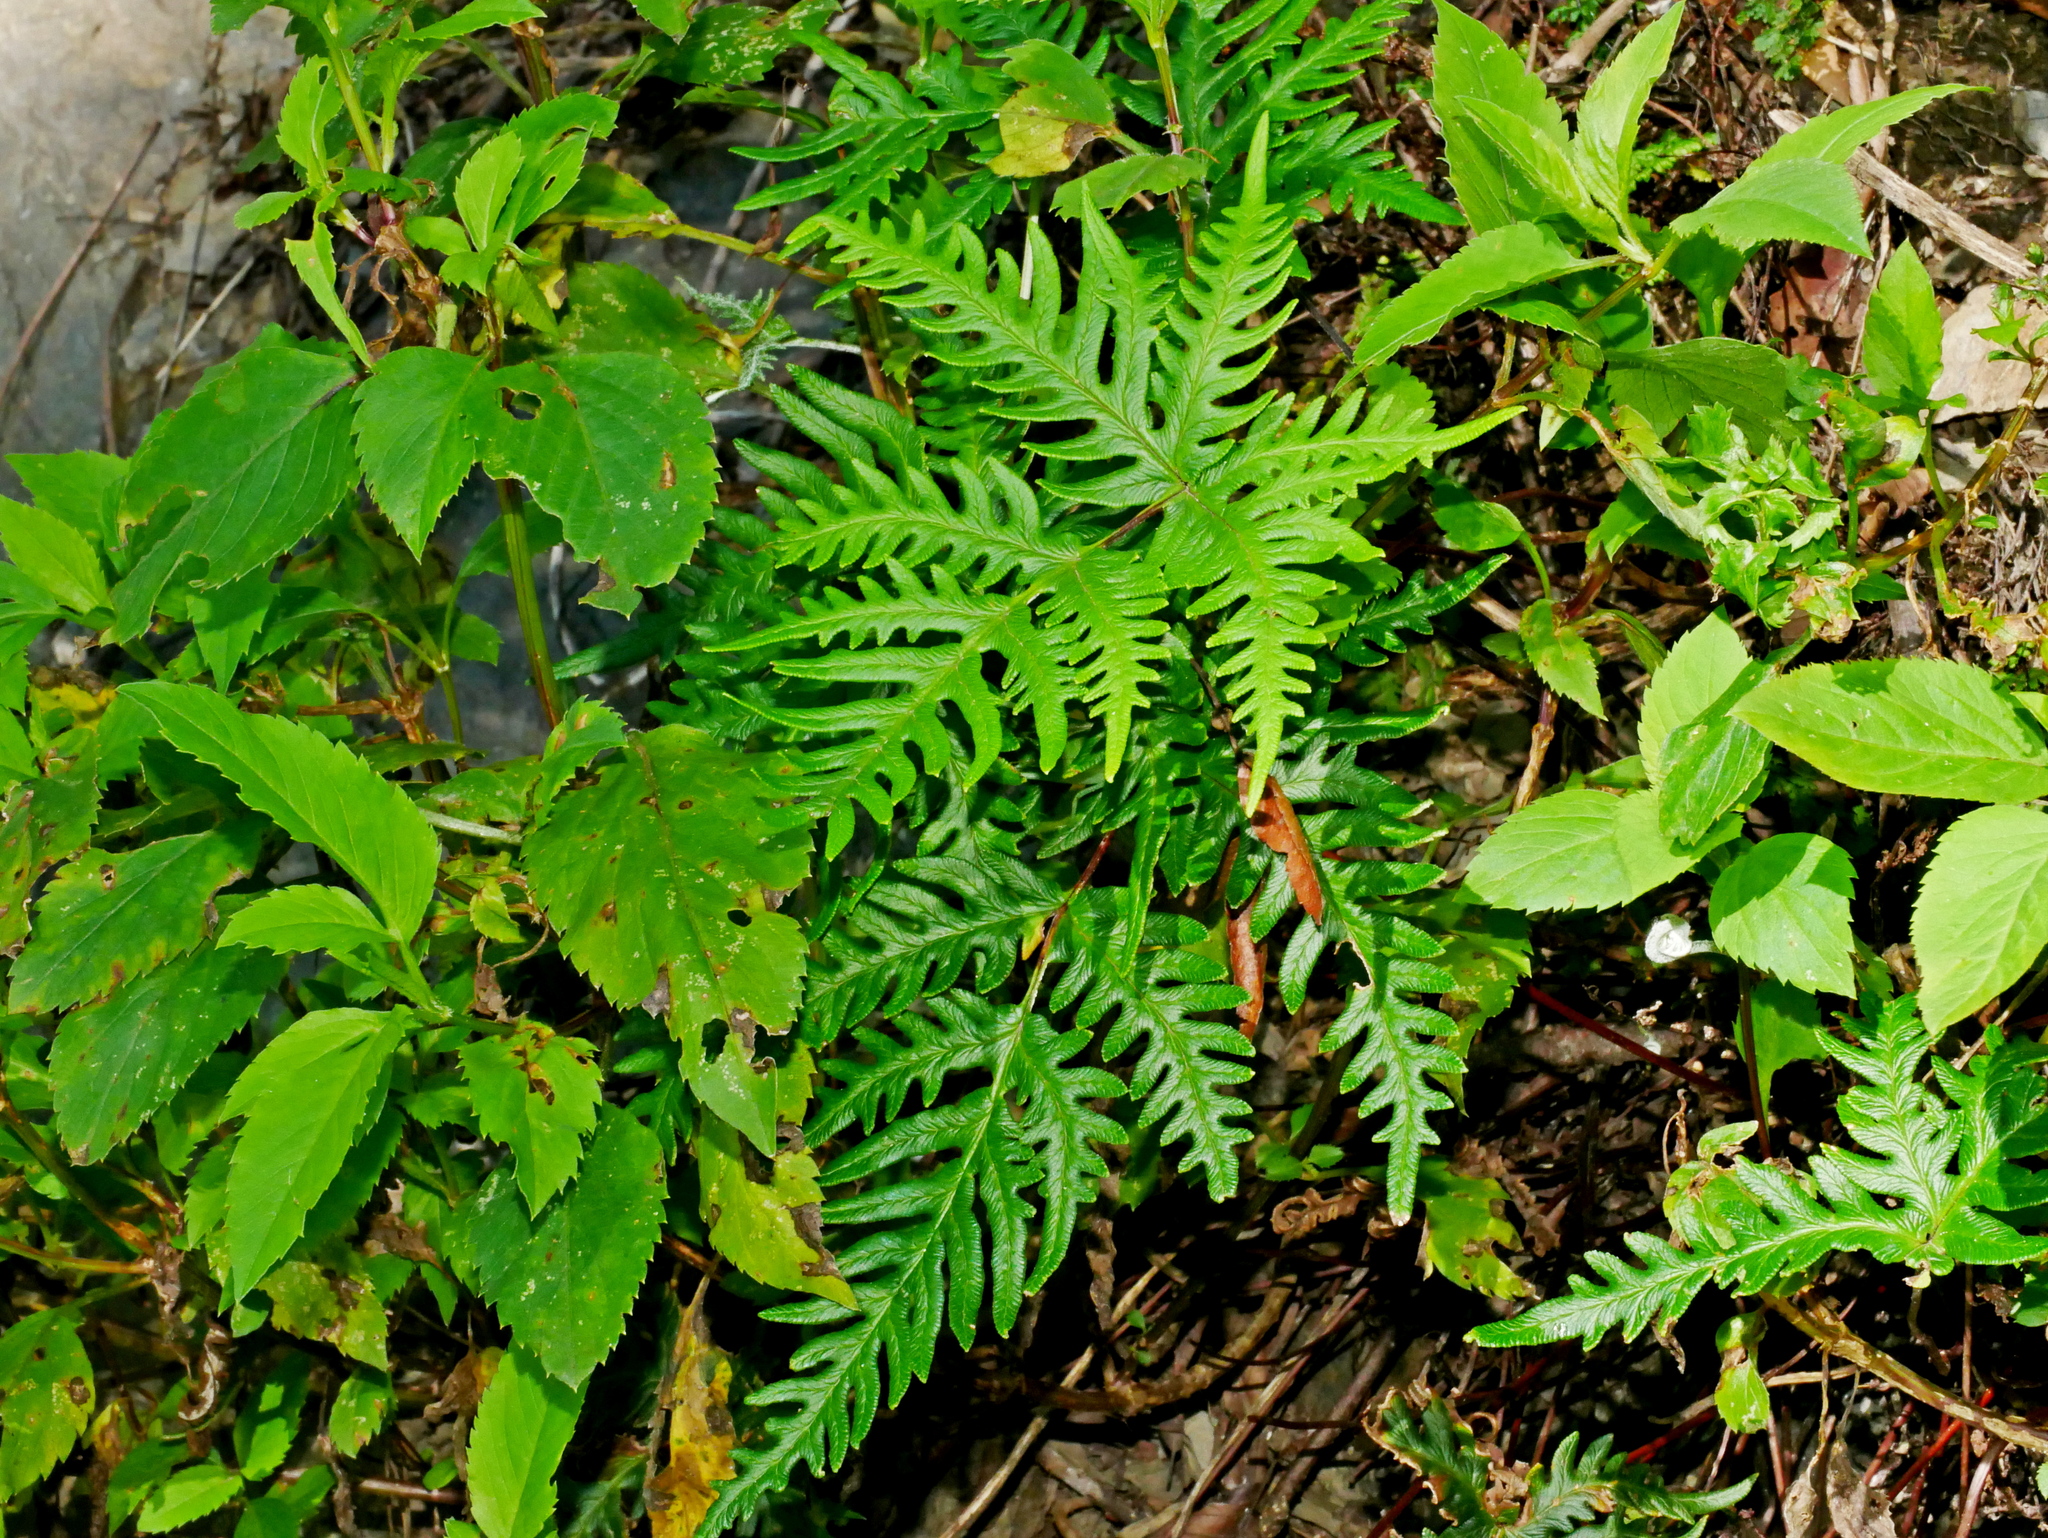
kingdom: Plantae
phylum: Tracheophyta
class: Polypodiopsida
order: Polypodiales
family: Pteridaceae
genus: Aleuritopteris
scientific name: Aleuritopteris argentea
